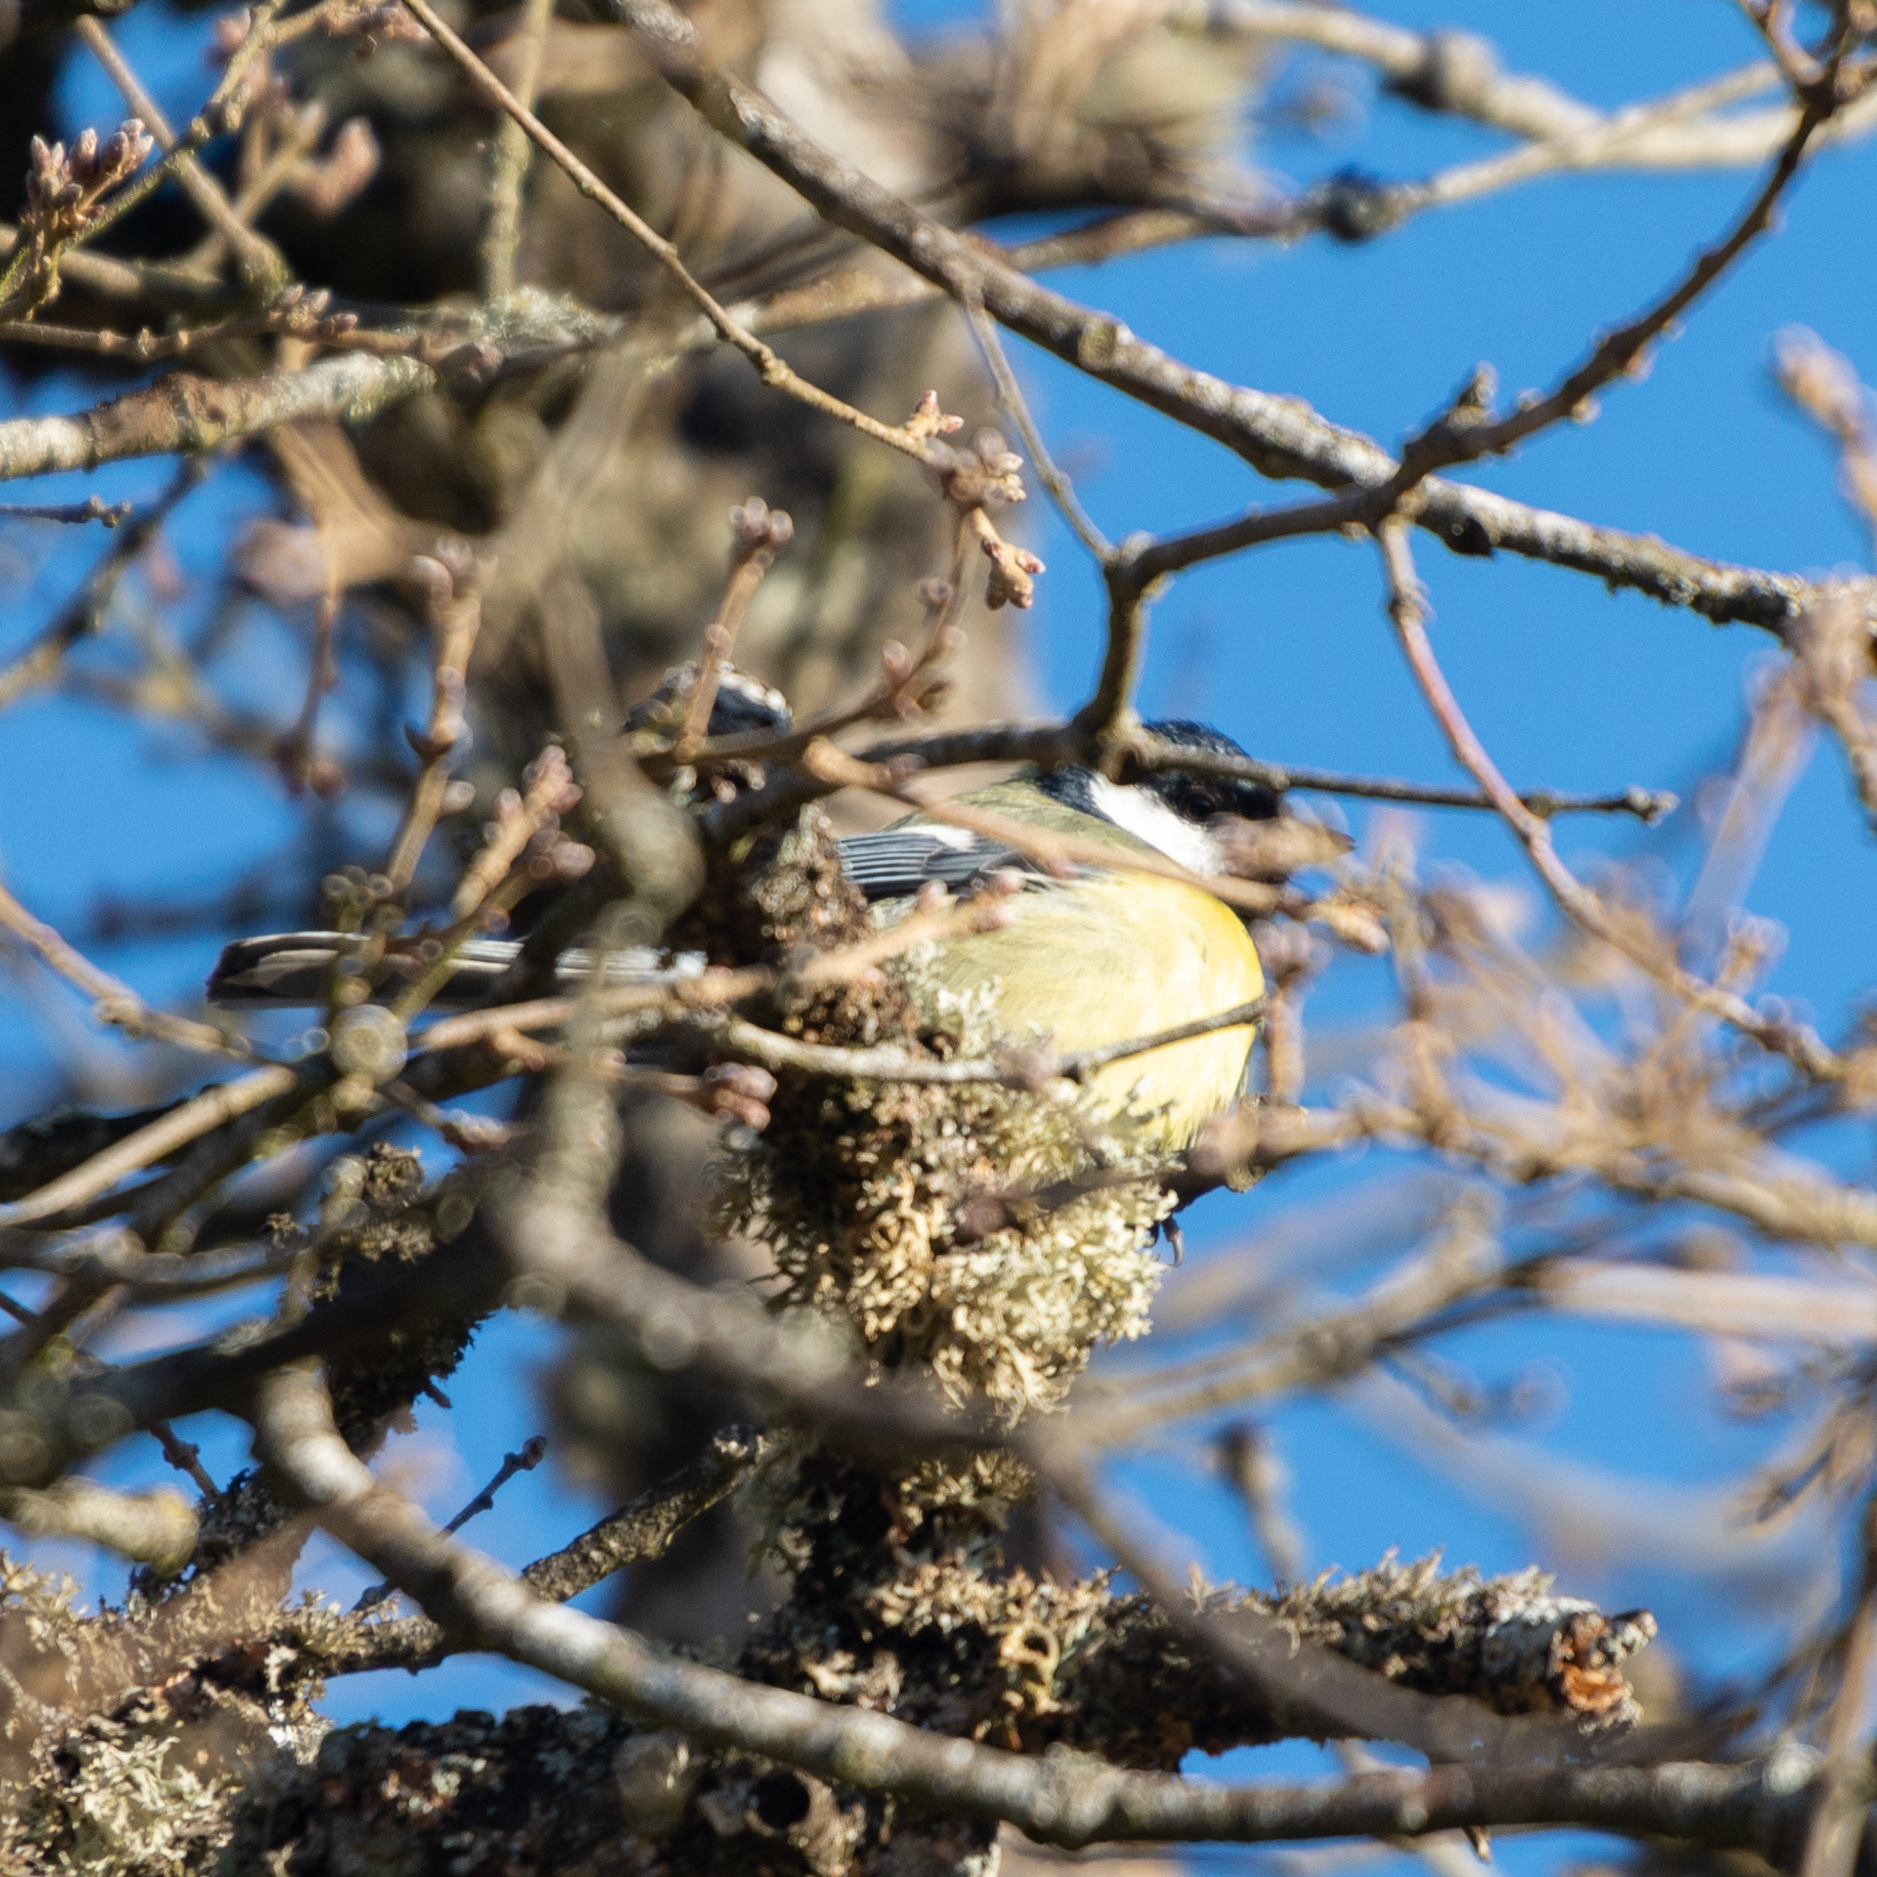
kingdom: Animalia
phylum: Chordata
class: Aves
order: Passeriformes
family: Paridae
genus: Parus
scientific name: Parus major
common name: Great tit
